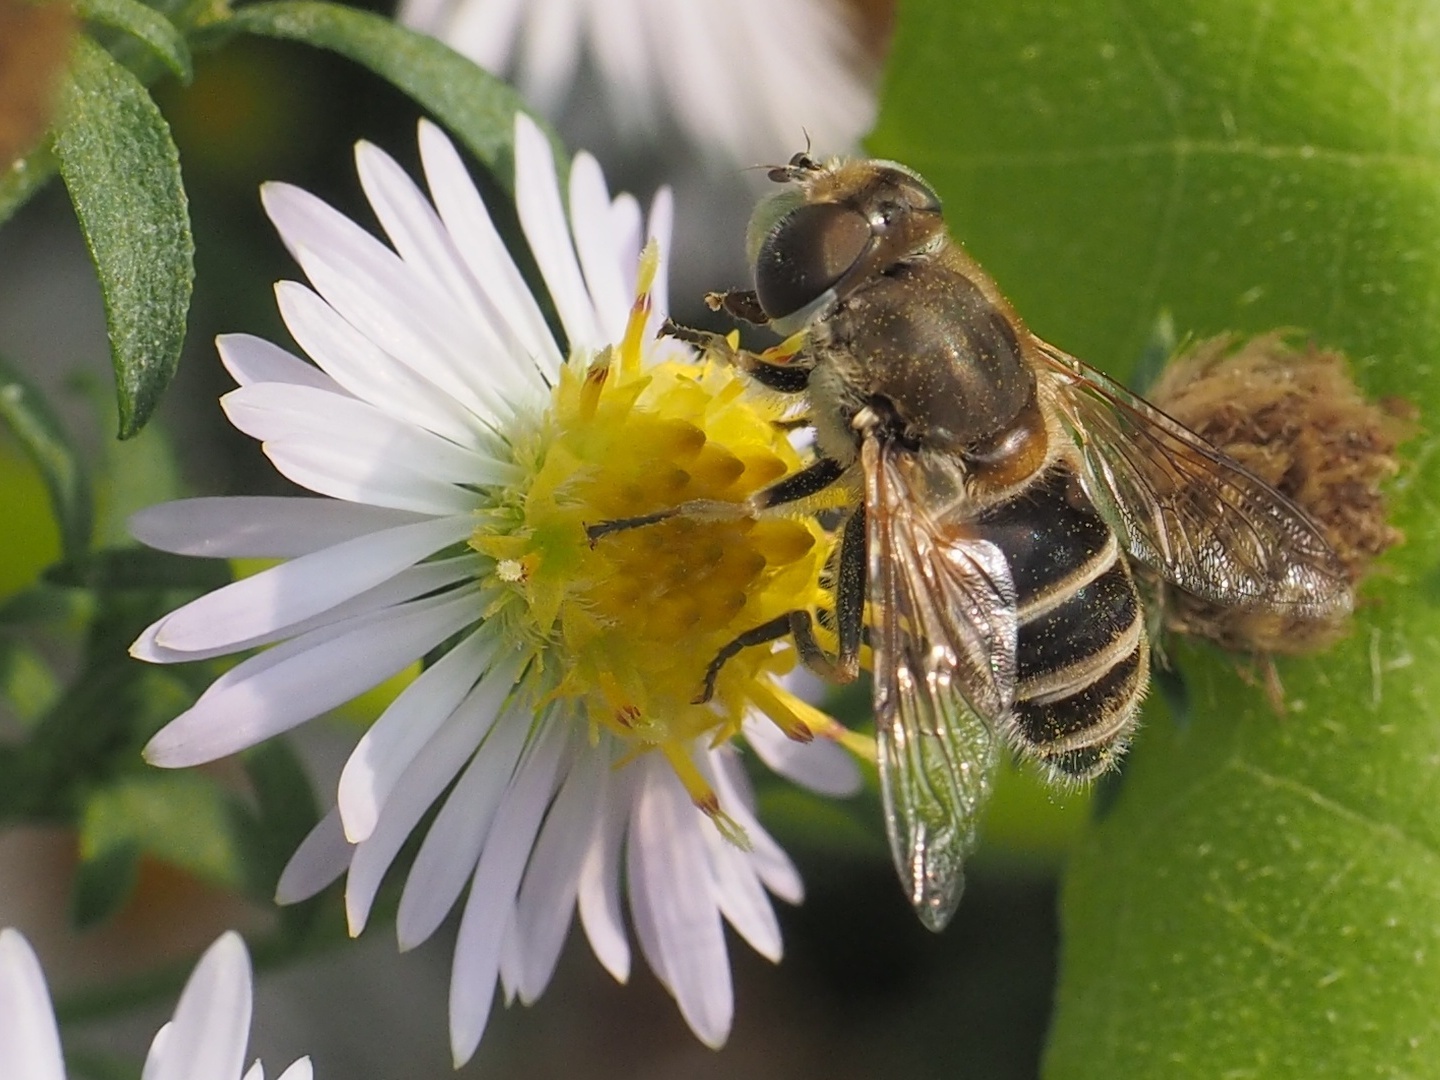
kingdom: Animalia
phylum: Arthropoda
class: Insecta
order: Diptera
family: Syrphidae
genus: Eristalis
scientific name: Eristalis arbustorum
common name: Hover fly
